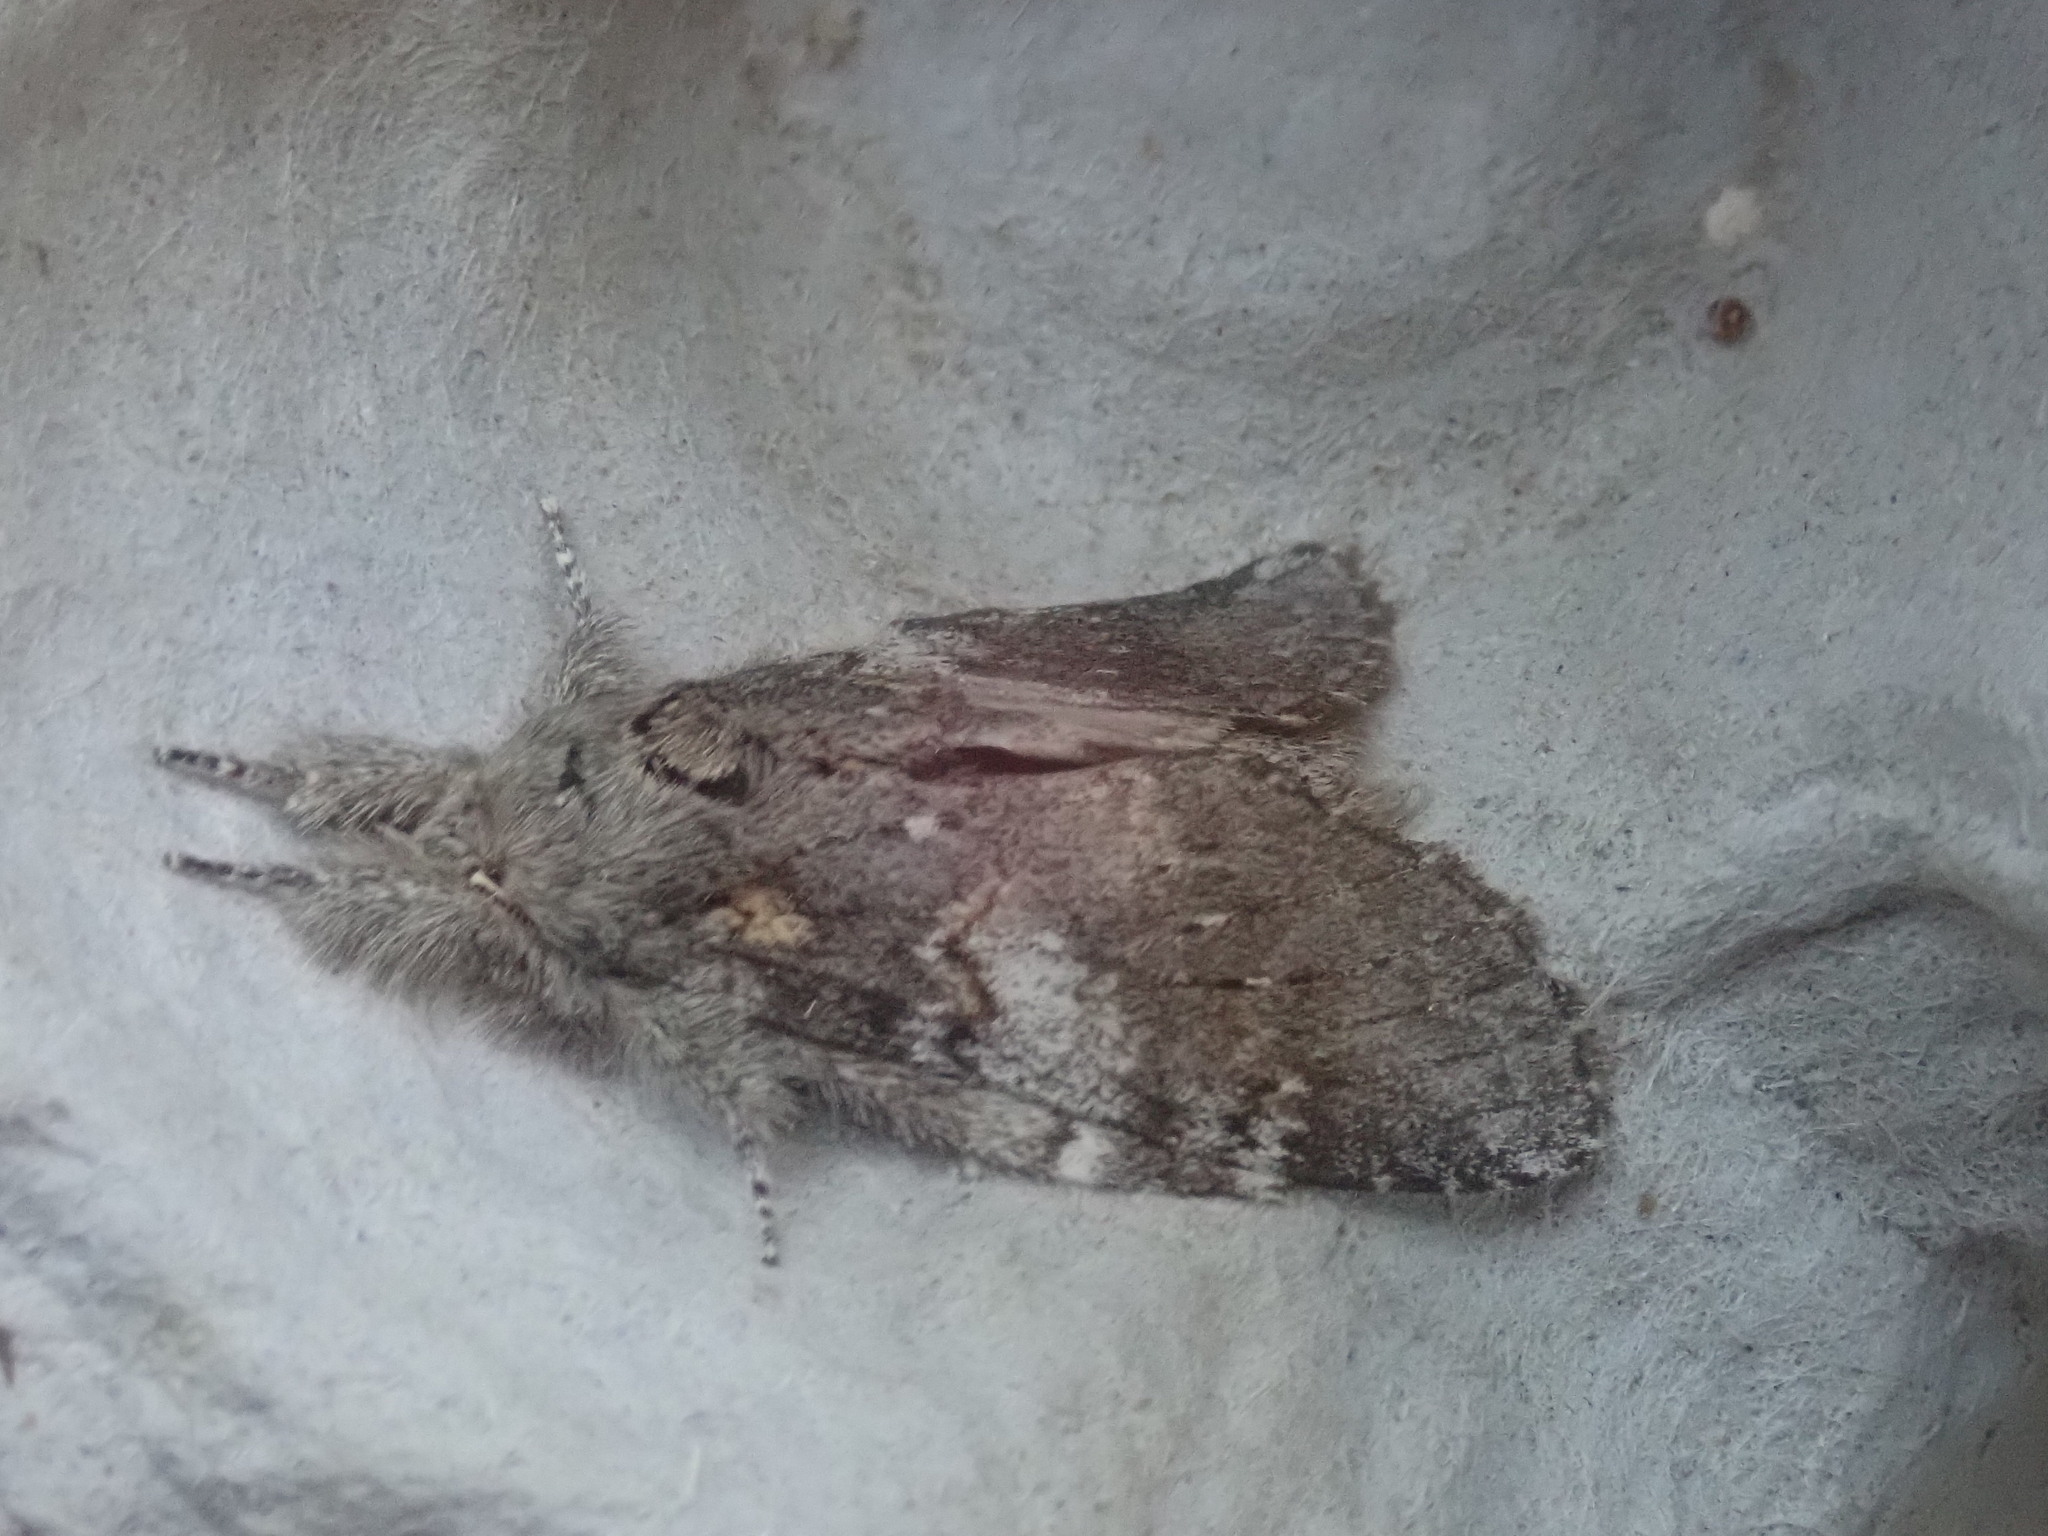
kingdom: Animalia
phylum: Arthropoda
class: Insecta
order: Lepidoptera
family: Notodontidae
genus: Peridea
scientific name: Peridea angulosa
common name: Angulose prominent
